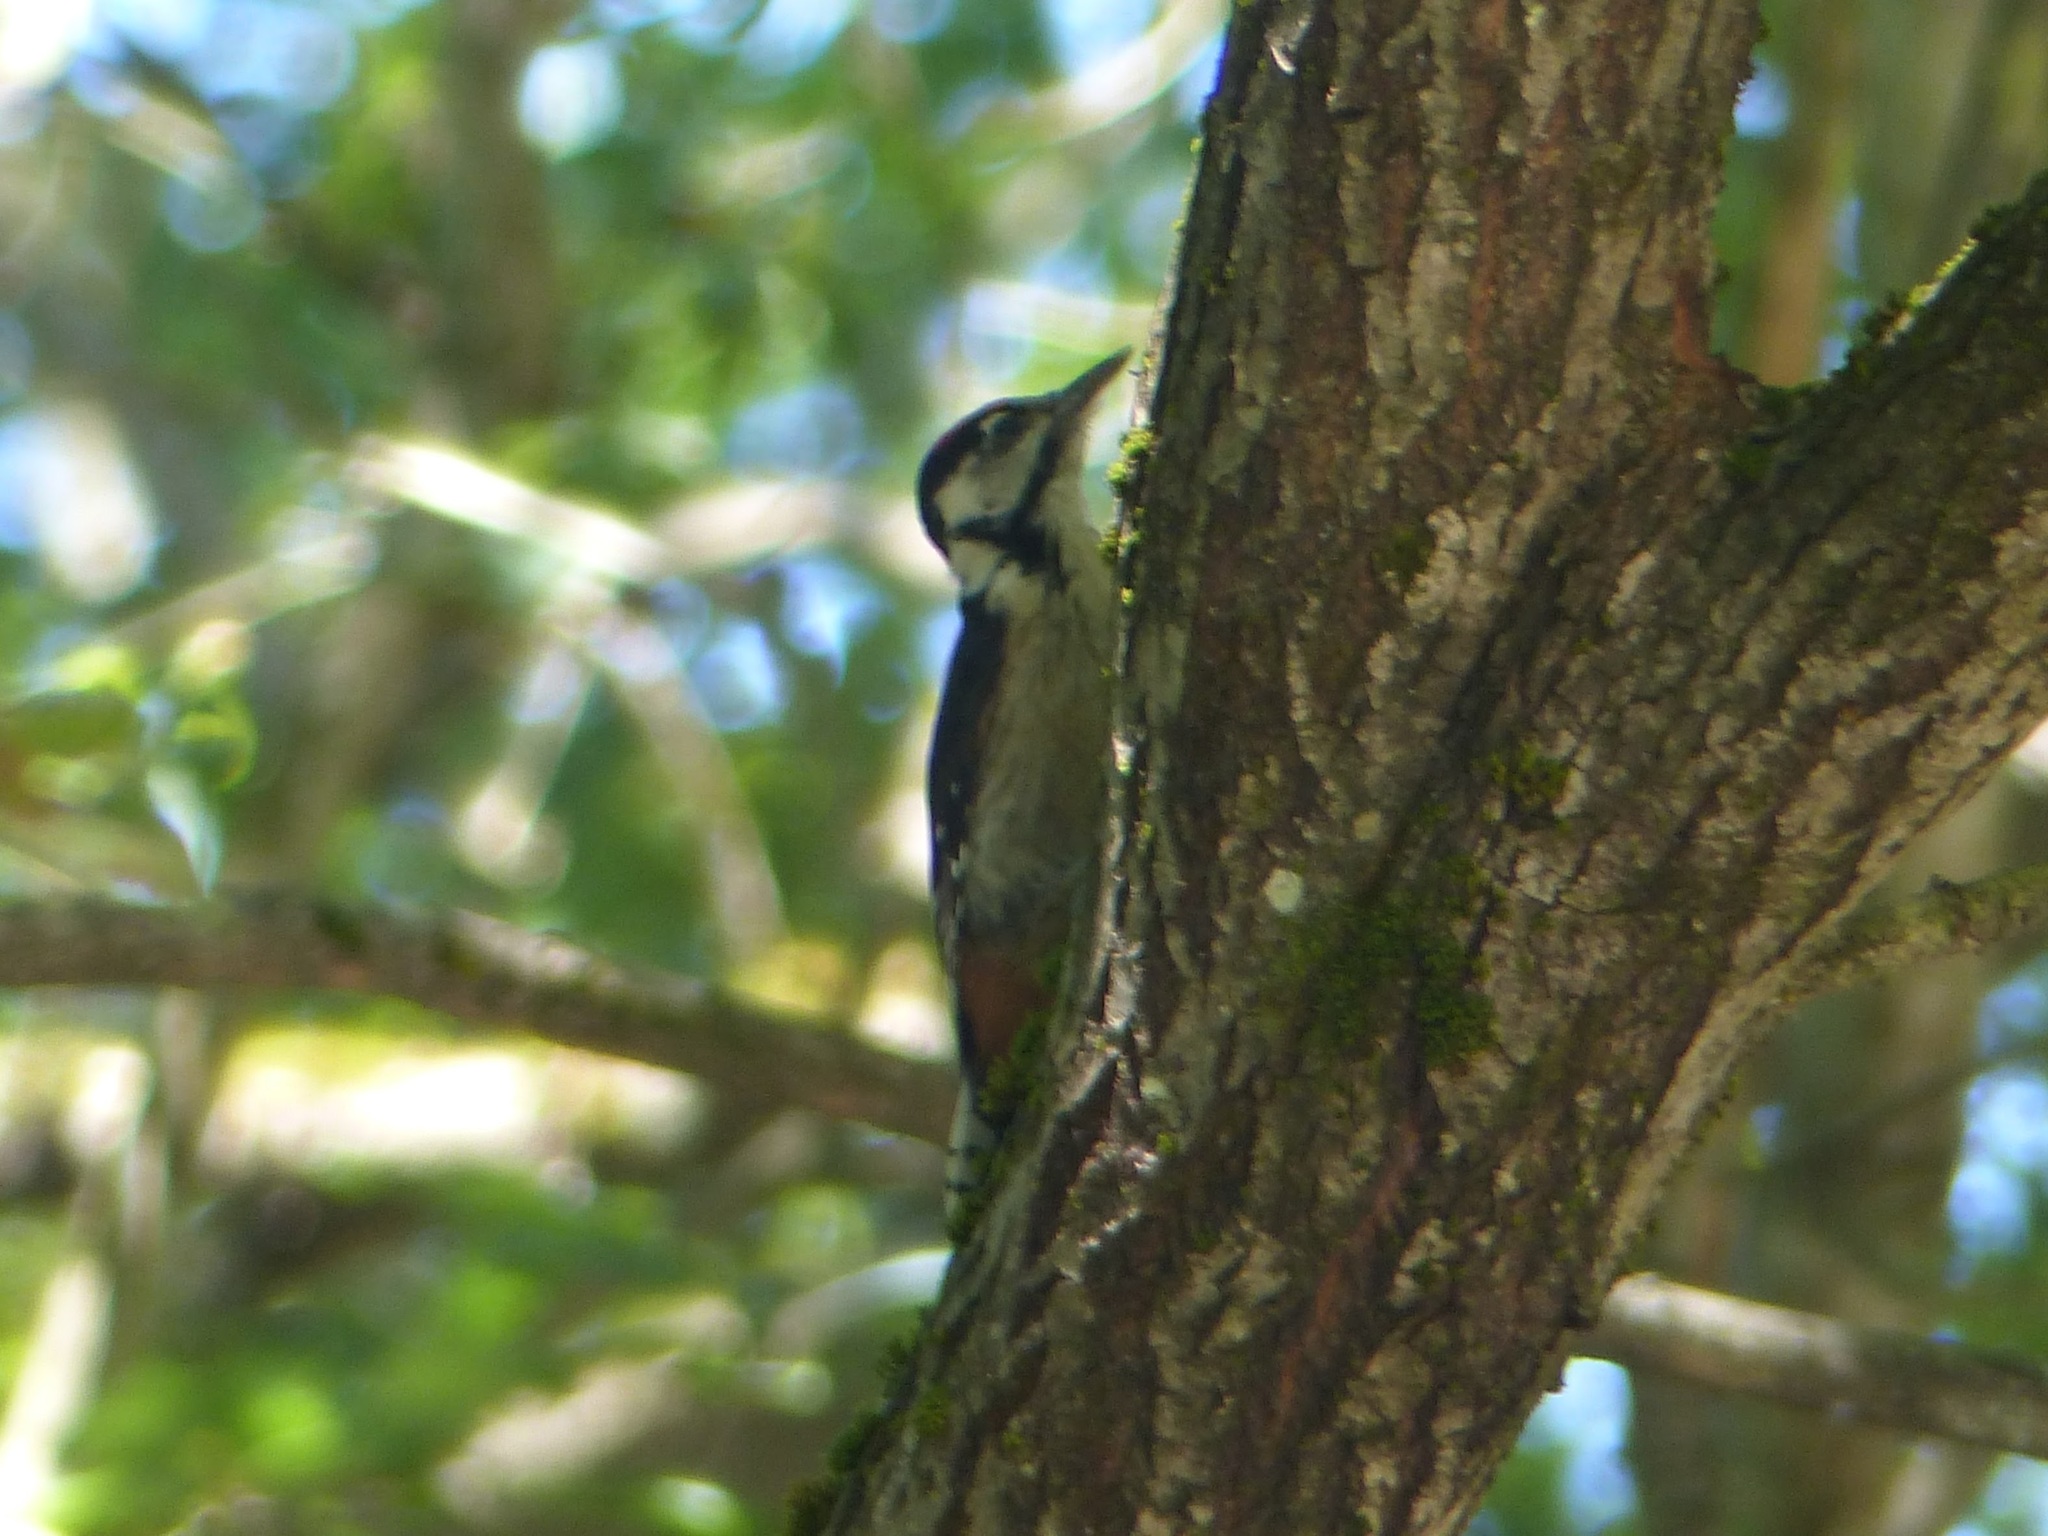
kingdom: Animalia
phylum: Chordata
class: Aves
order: Piciformes
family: Picidae
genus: Dendrocopos
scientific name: Dendrocopos major
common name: Great spotted woodpecker
